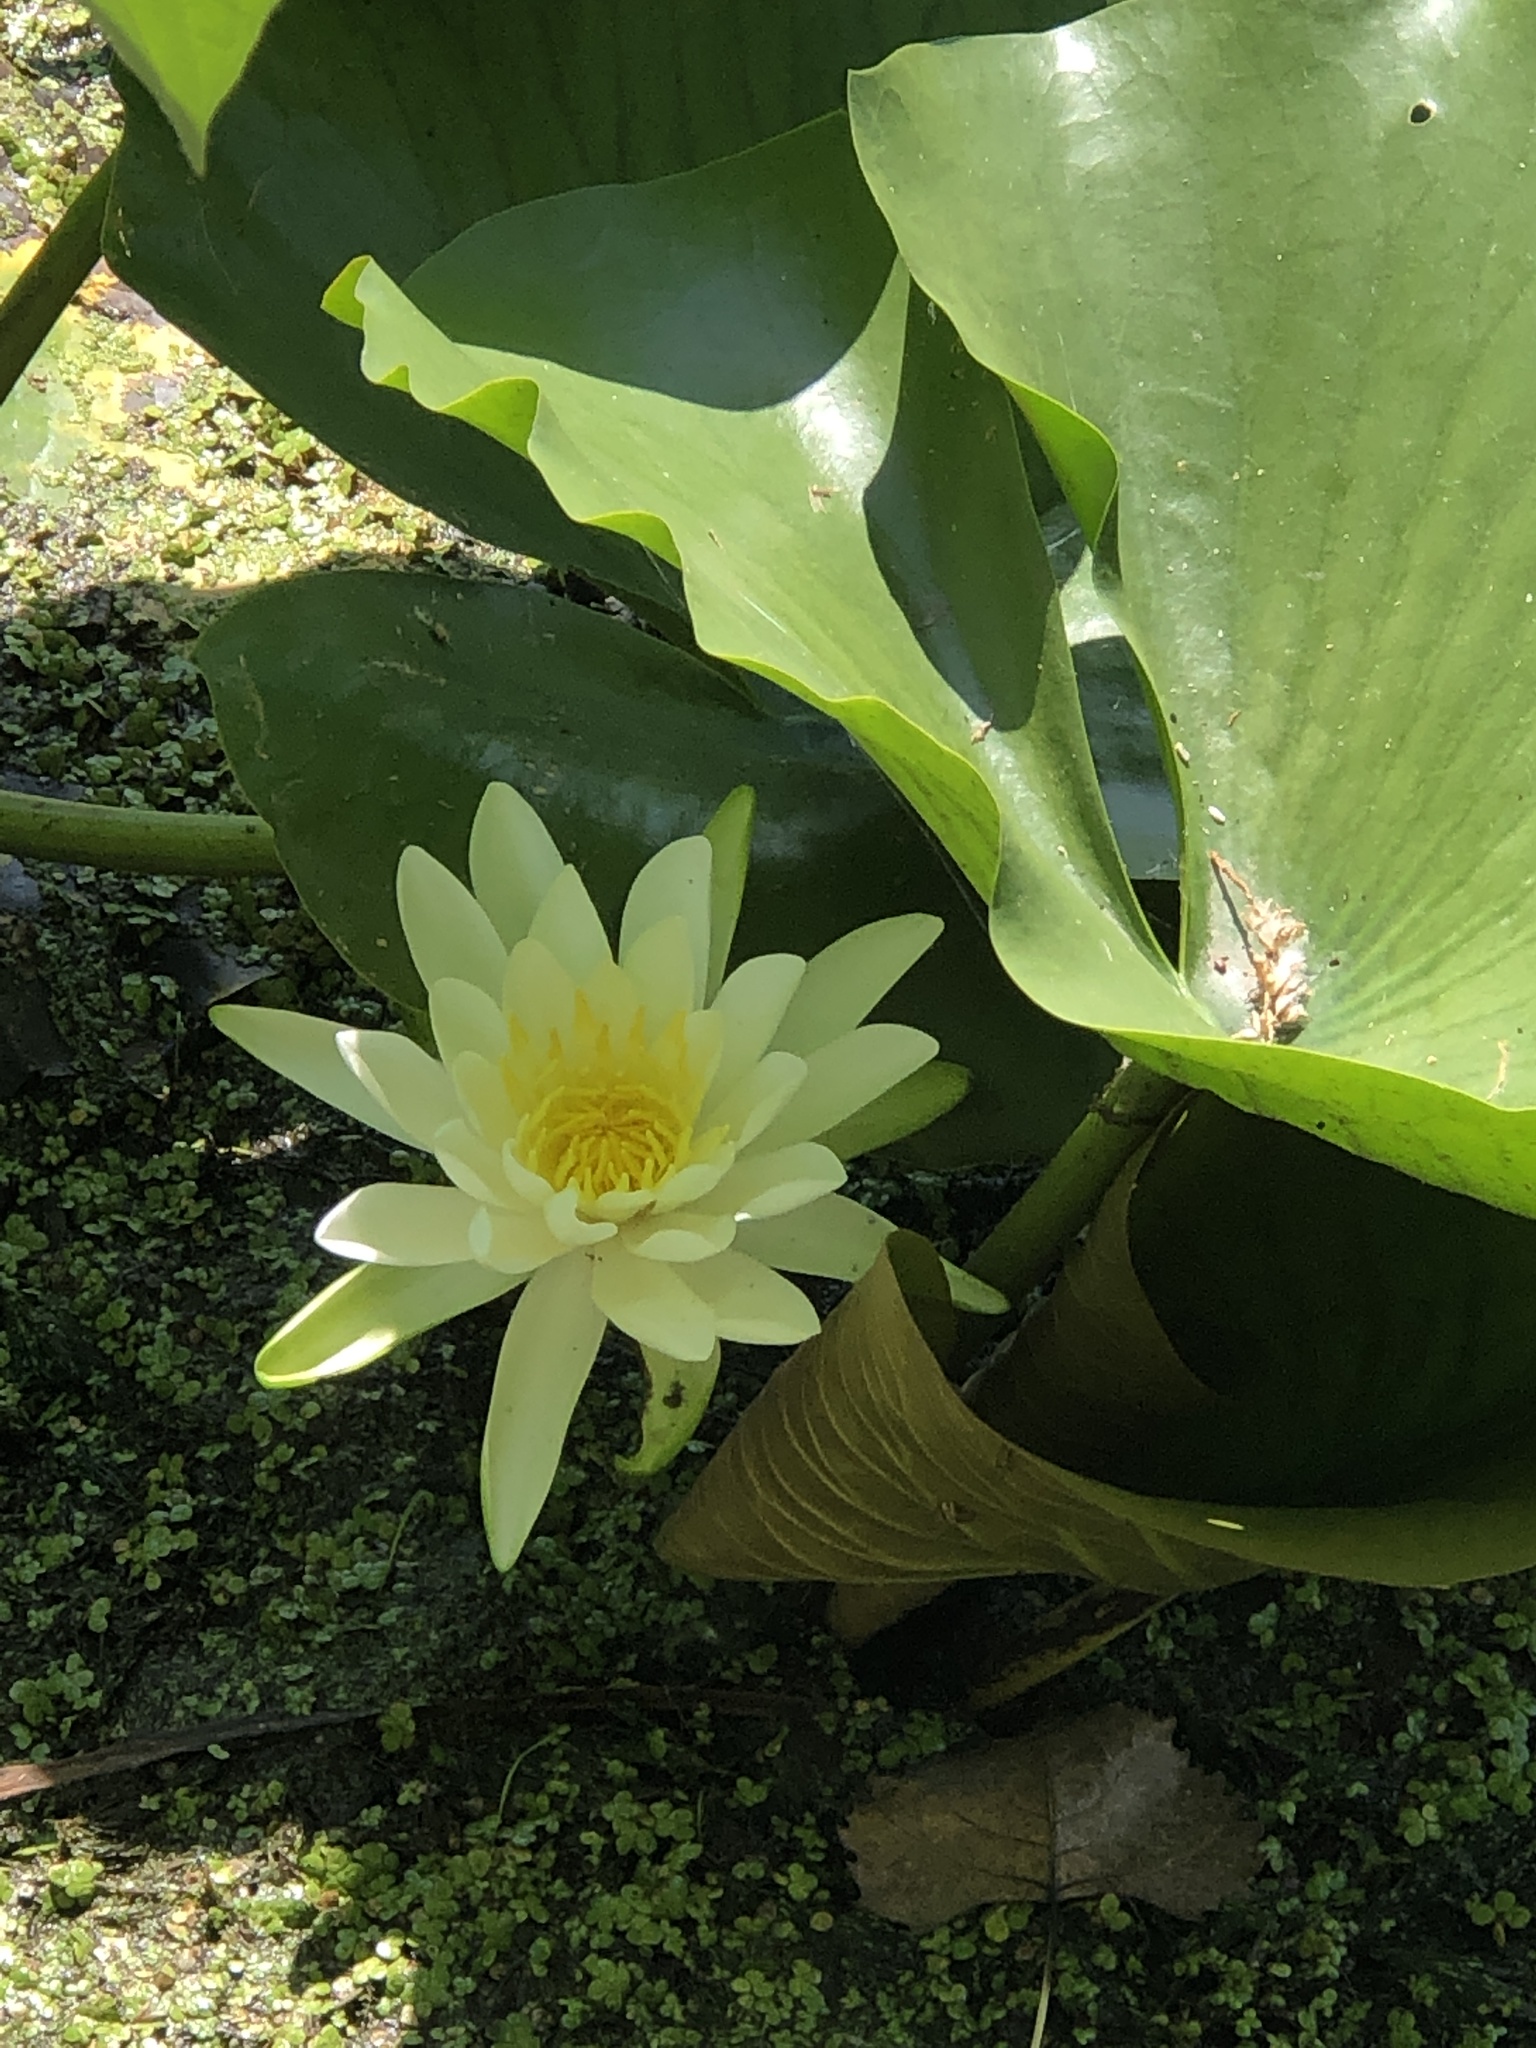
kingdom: Plantae
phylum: Tracheophyta
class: Magnoliopsida
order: Nymphaeales
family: Nymphaeaceae
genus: Nymphaea
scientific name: Nymphaea odorata
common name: Fragrant water-lily
